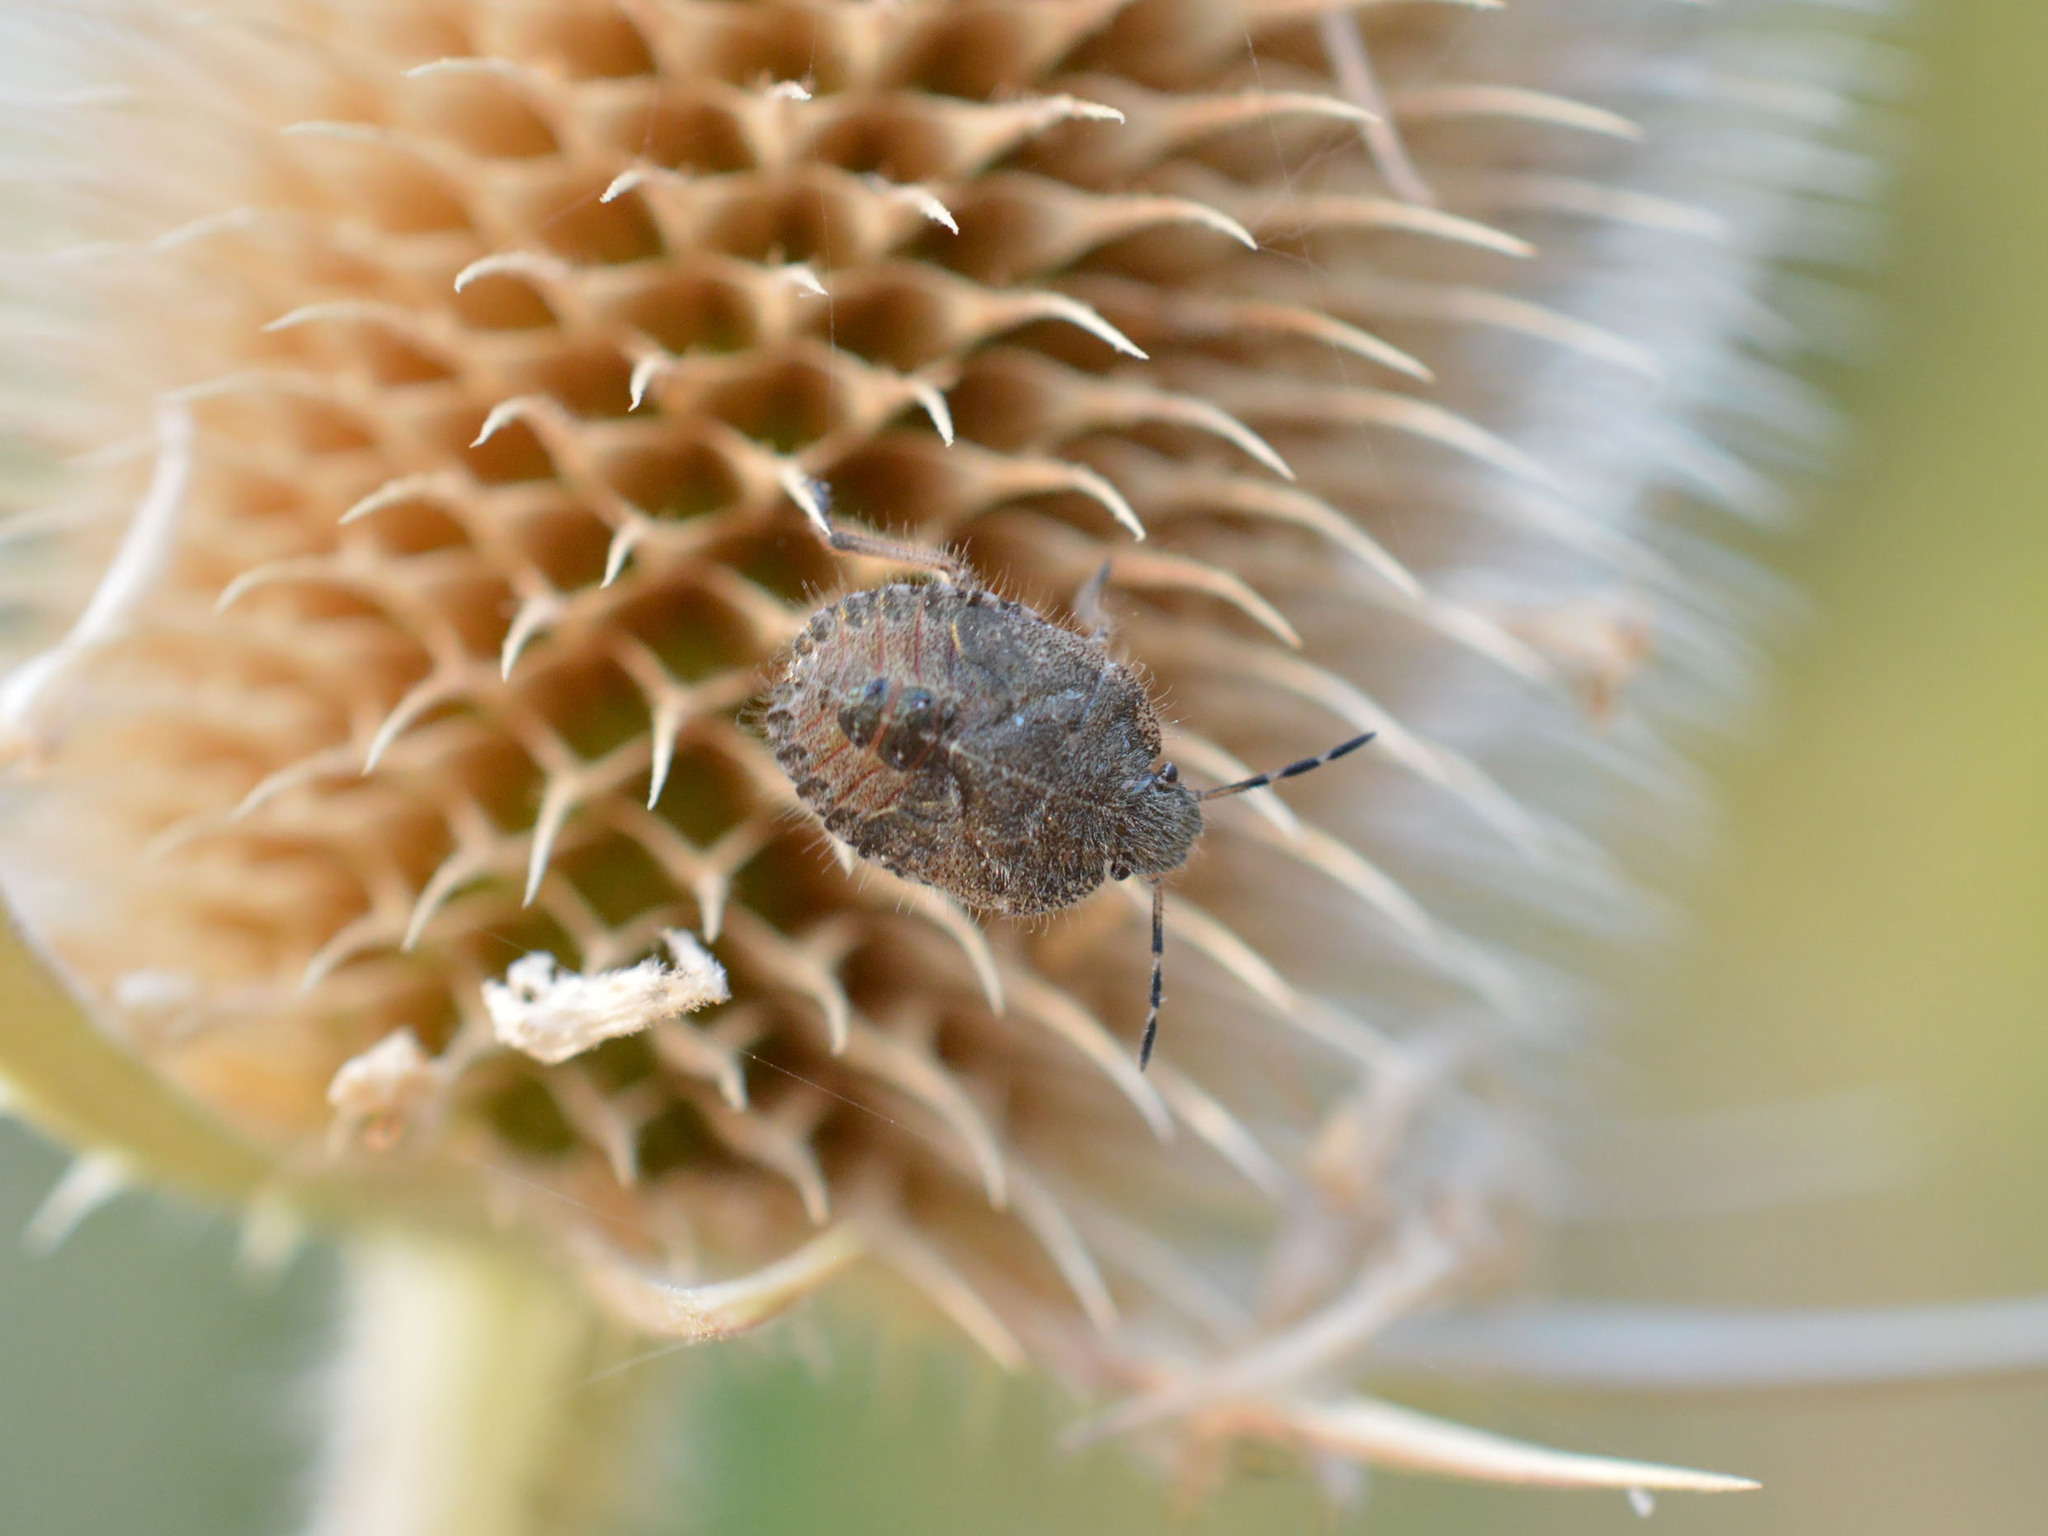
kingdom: Animalia
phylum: Arthropoda
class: Insecta
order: Hemiptera
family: Pentatomidae
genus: Dolycoris
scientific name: Dolycoris baccarum
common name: Sloe bug
